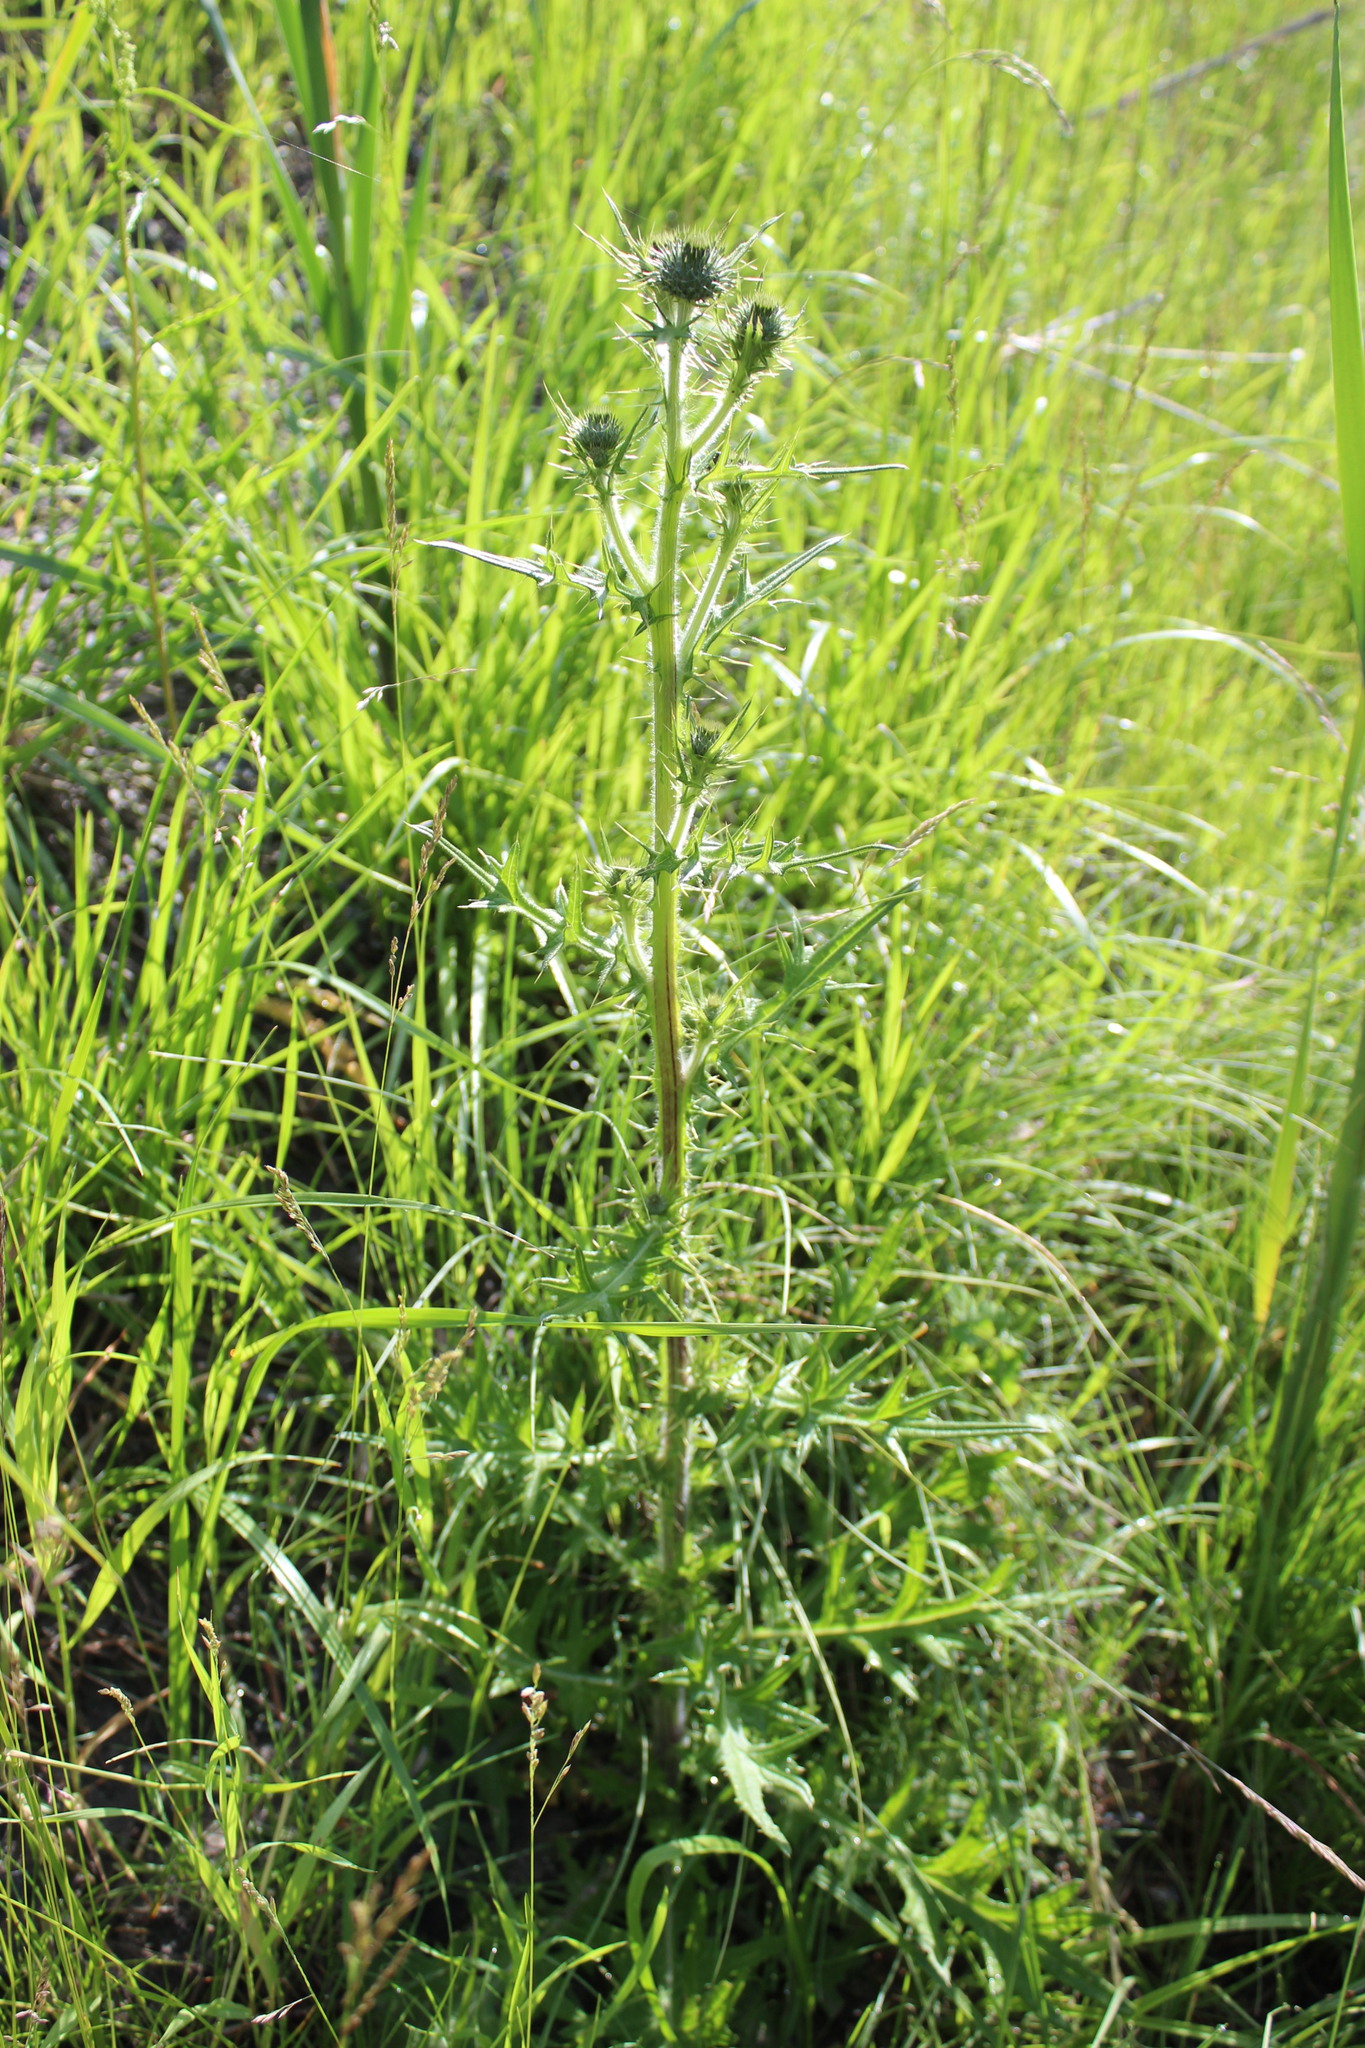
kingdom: Plantae
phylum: Tracheophyta
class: Magnoliopsida
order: Asterales
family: Asteraceae
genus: Cirsium
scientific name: Cirsium vulgare
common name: Bull thistle
